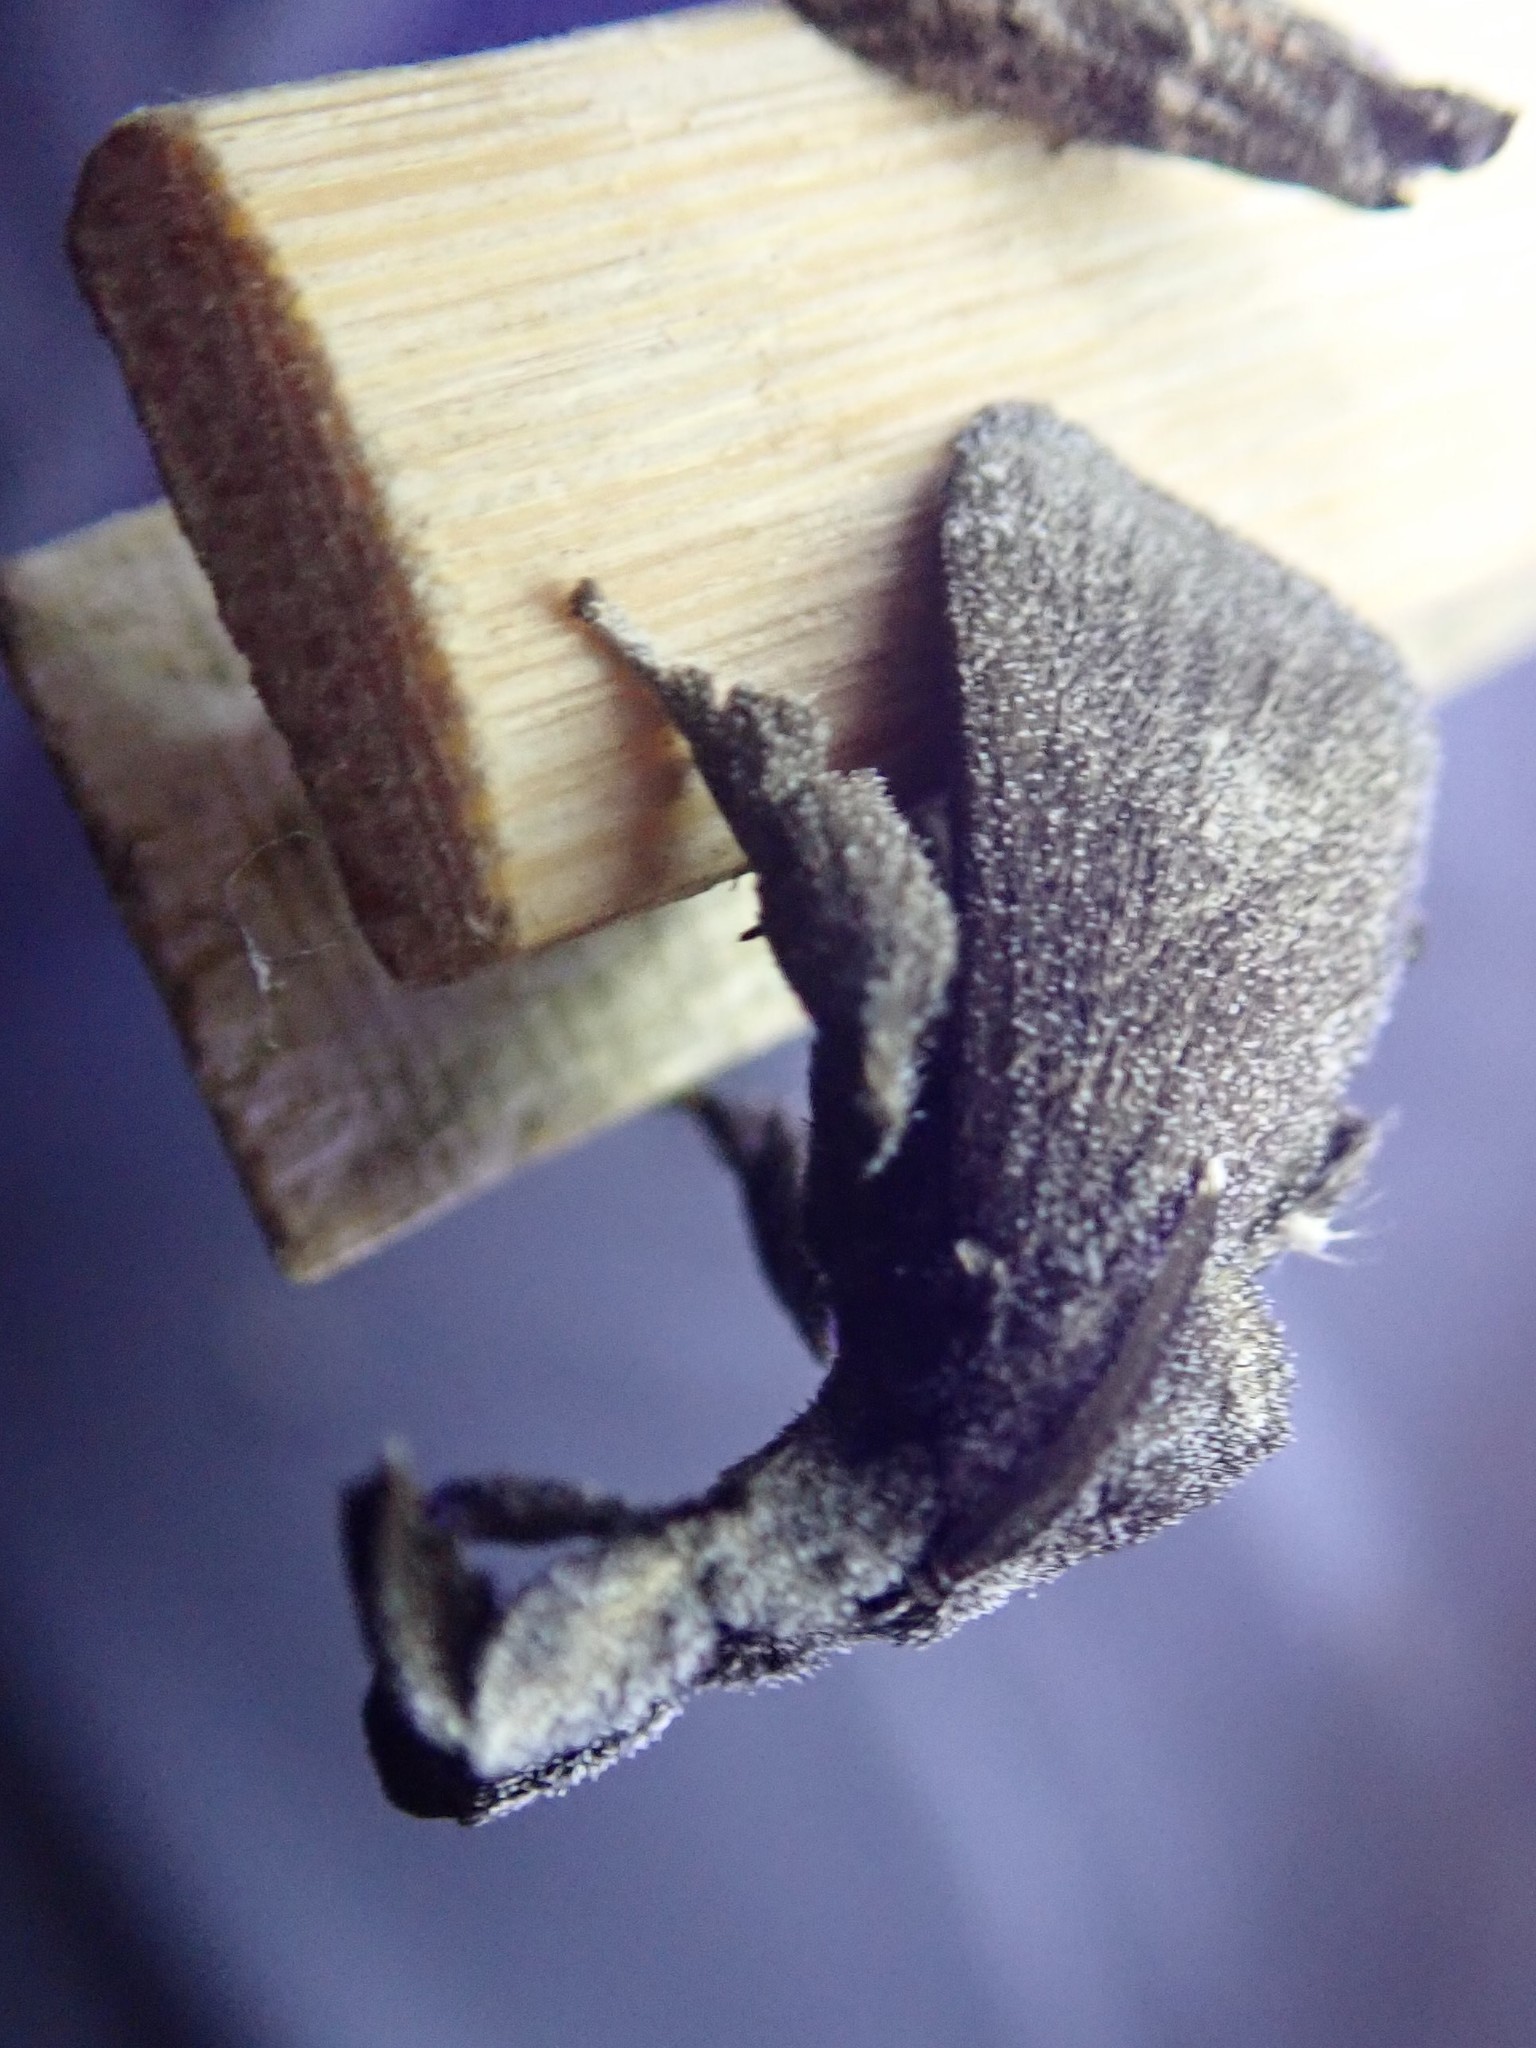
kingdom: Animalia
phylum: Arthropoda
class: Insecta
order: Lepidoptera
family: Limacodidae
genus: Perola
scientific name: Perola repetita
